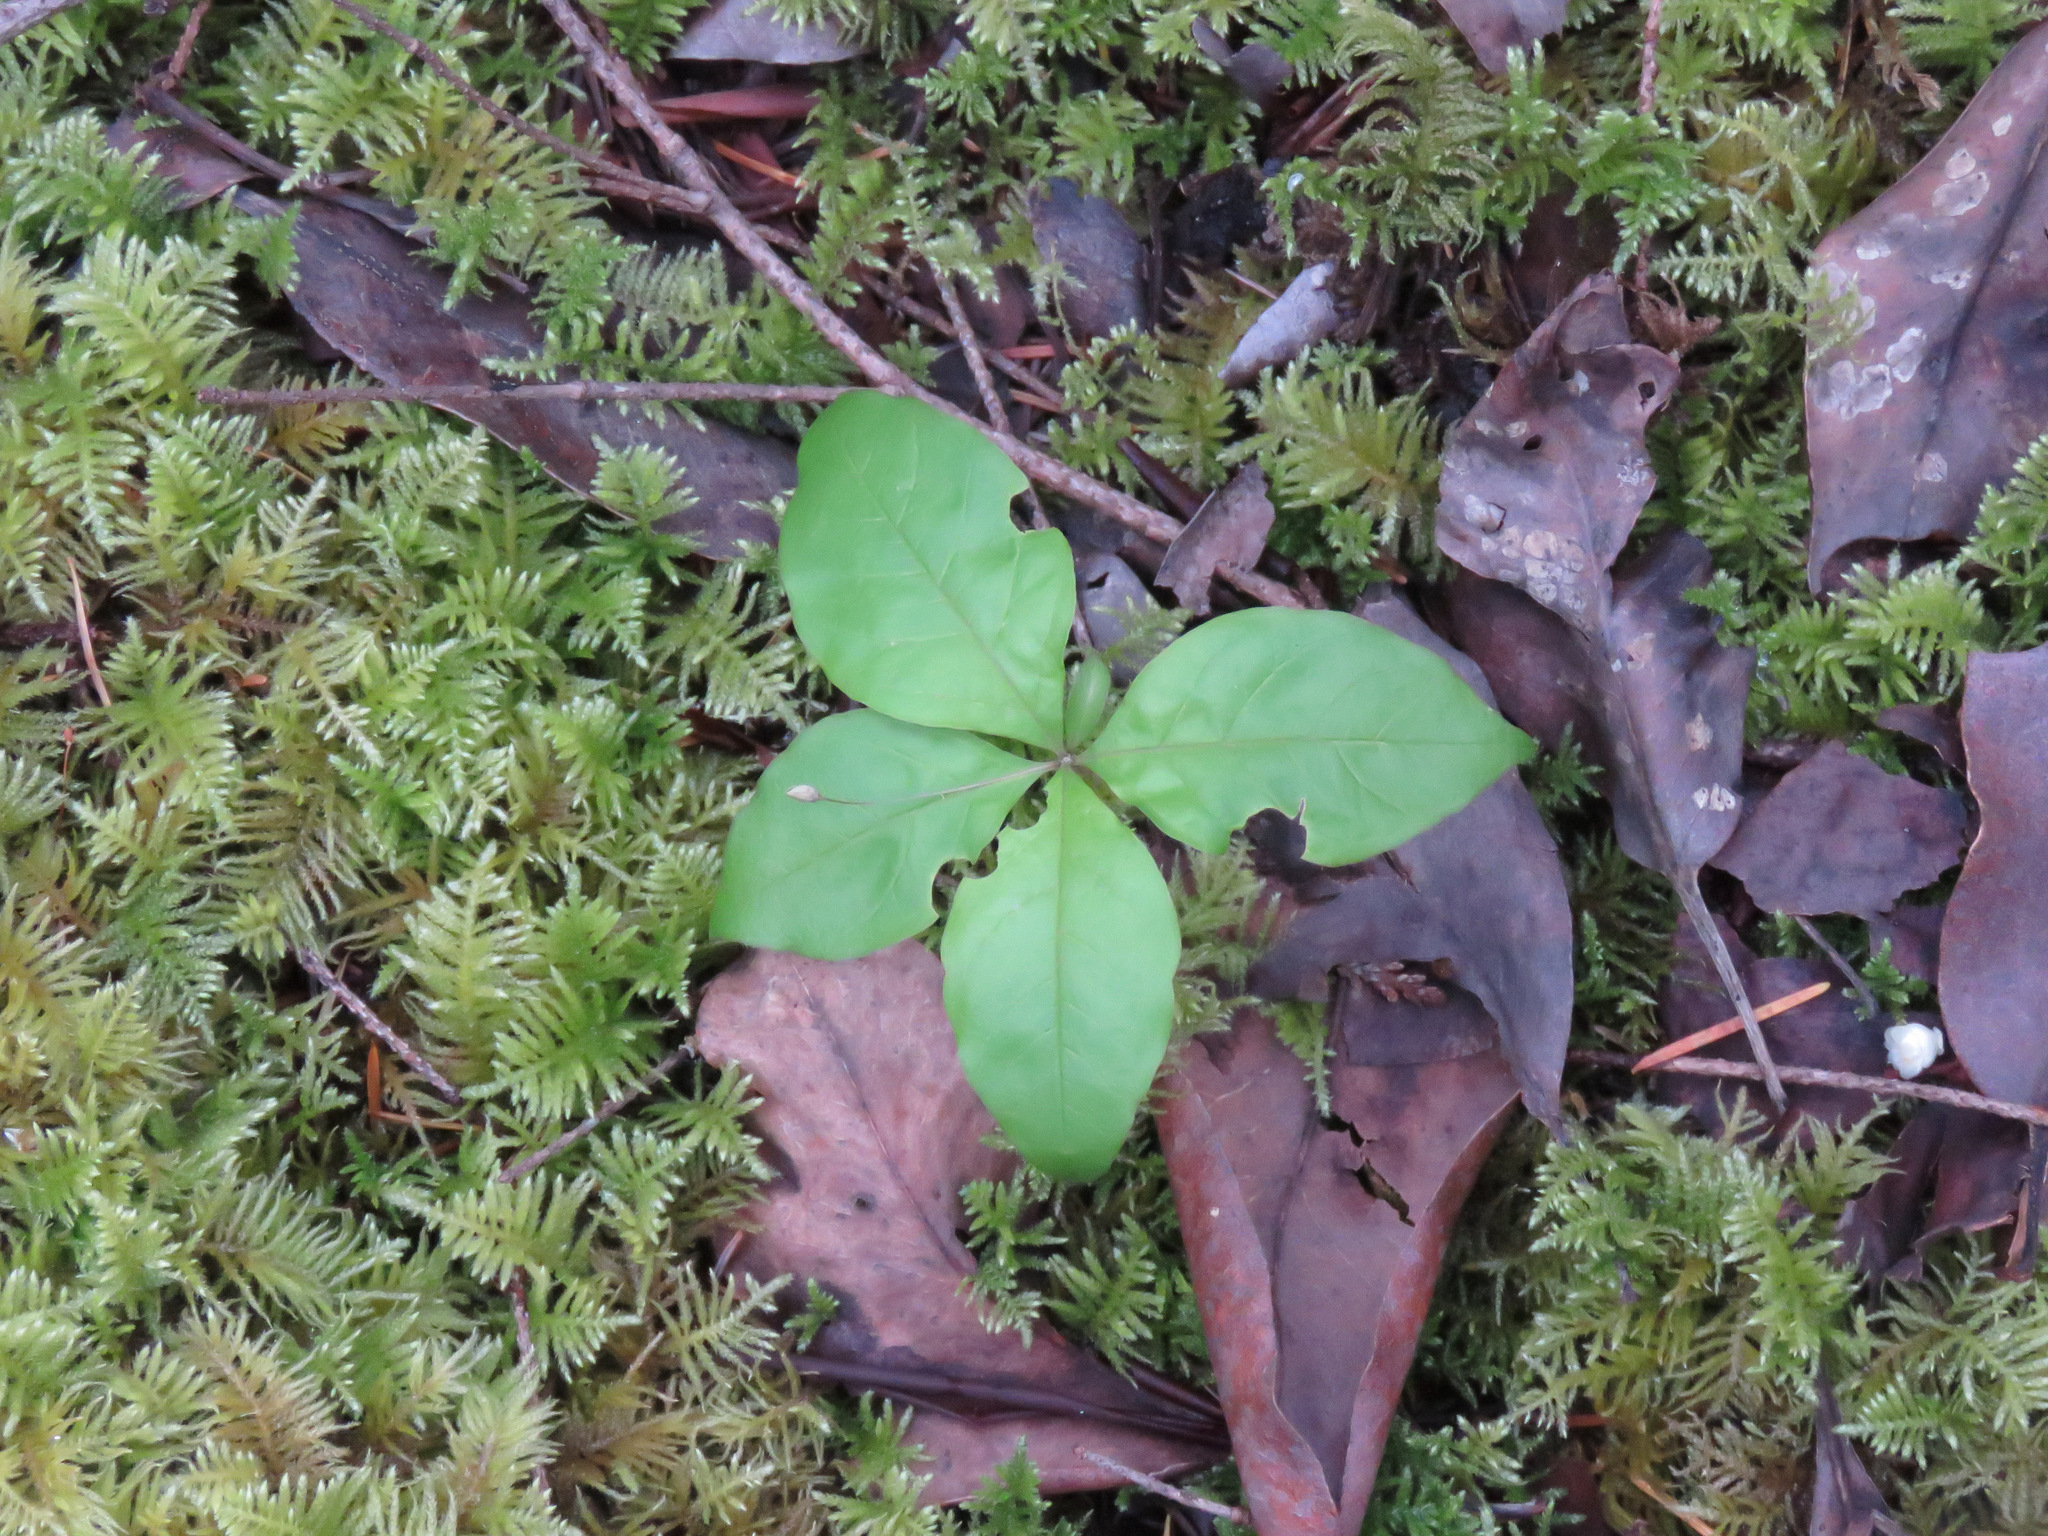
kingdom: Plantae
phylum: Tracheophyta
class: Magnoliopsida
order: Ericales
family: Primulaceae
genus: Lysimachia
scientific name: Lysimachia latifolia
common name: Pacific starflower
